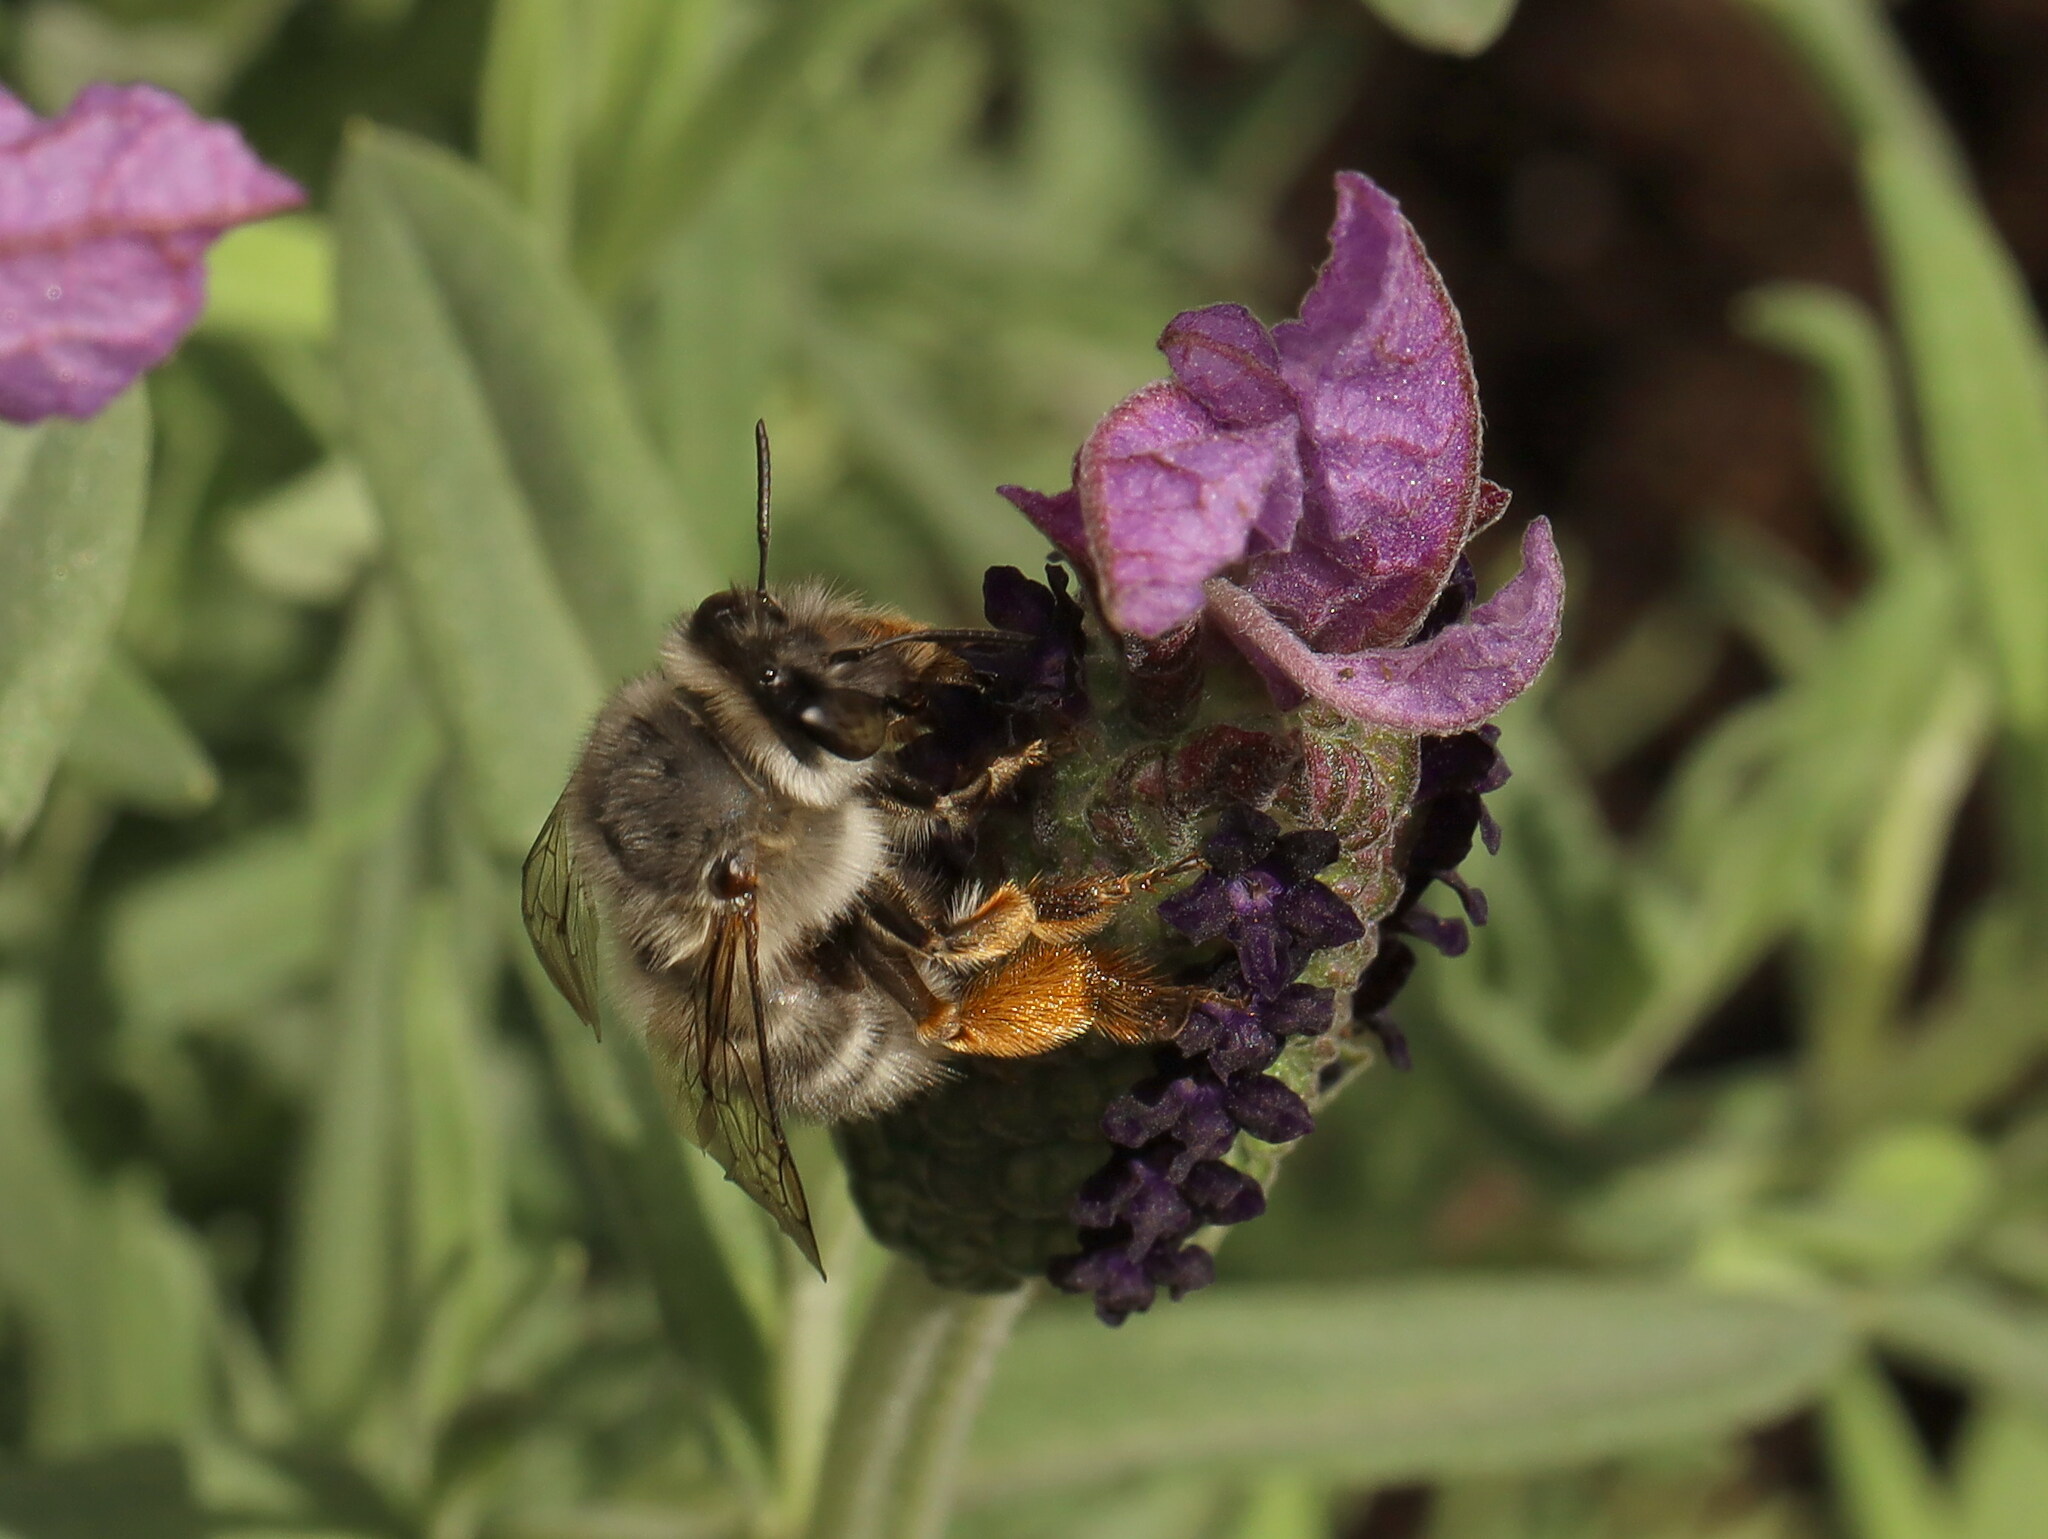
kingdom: Animalia
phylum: Arthropoda
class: Insecta
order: Hymenoptera
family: Apidae
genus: Anthophora
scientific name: Anthophora dispar
